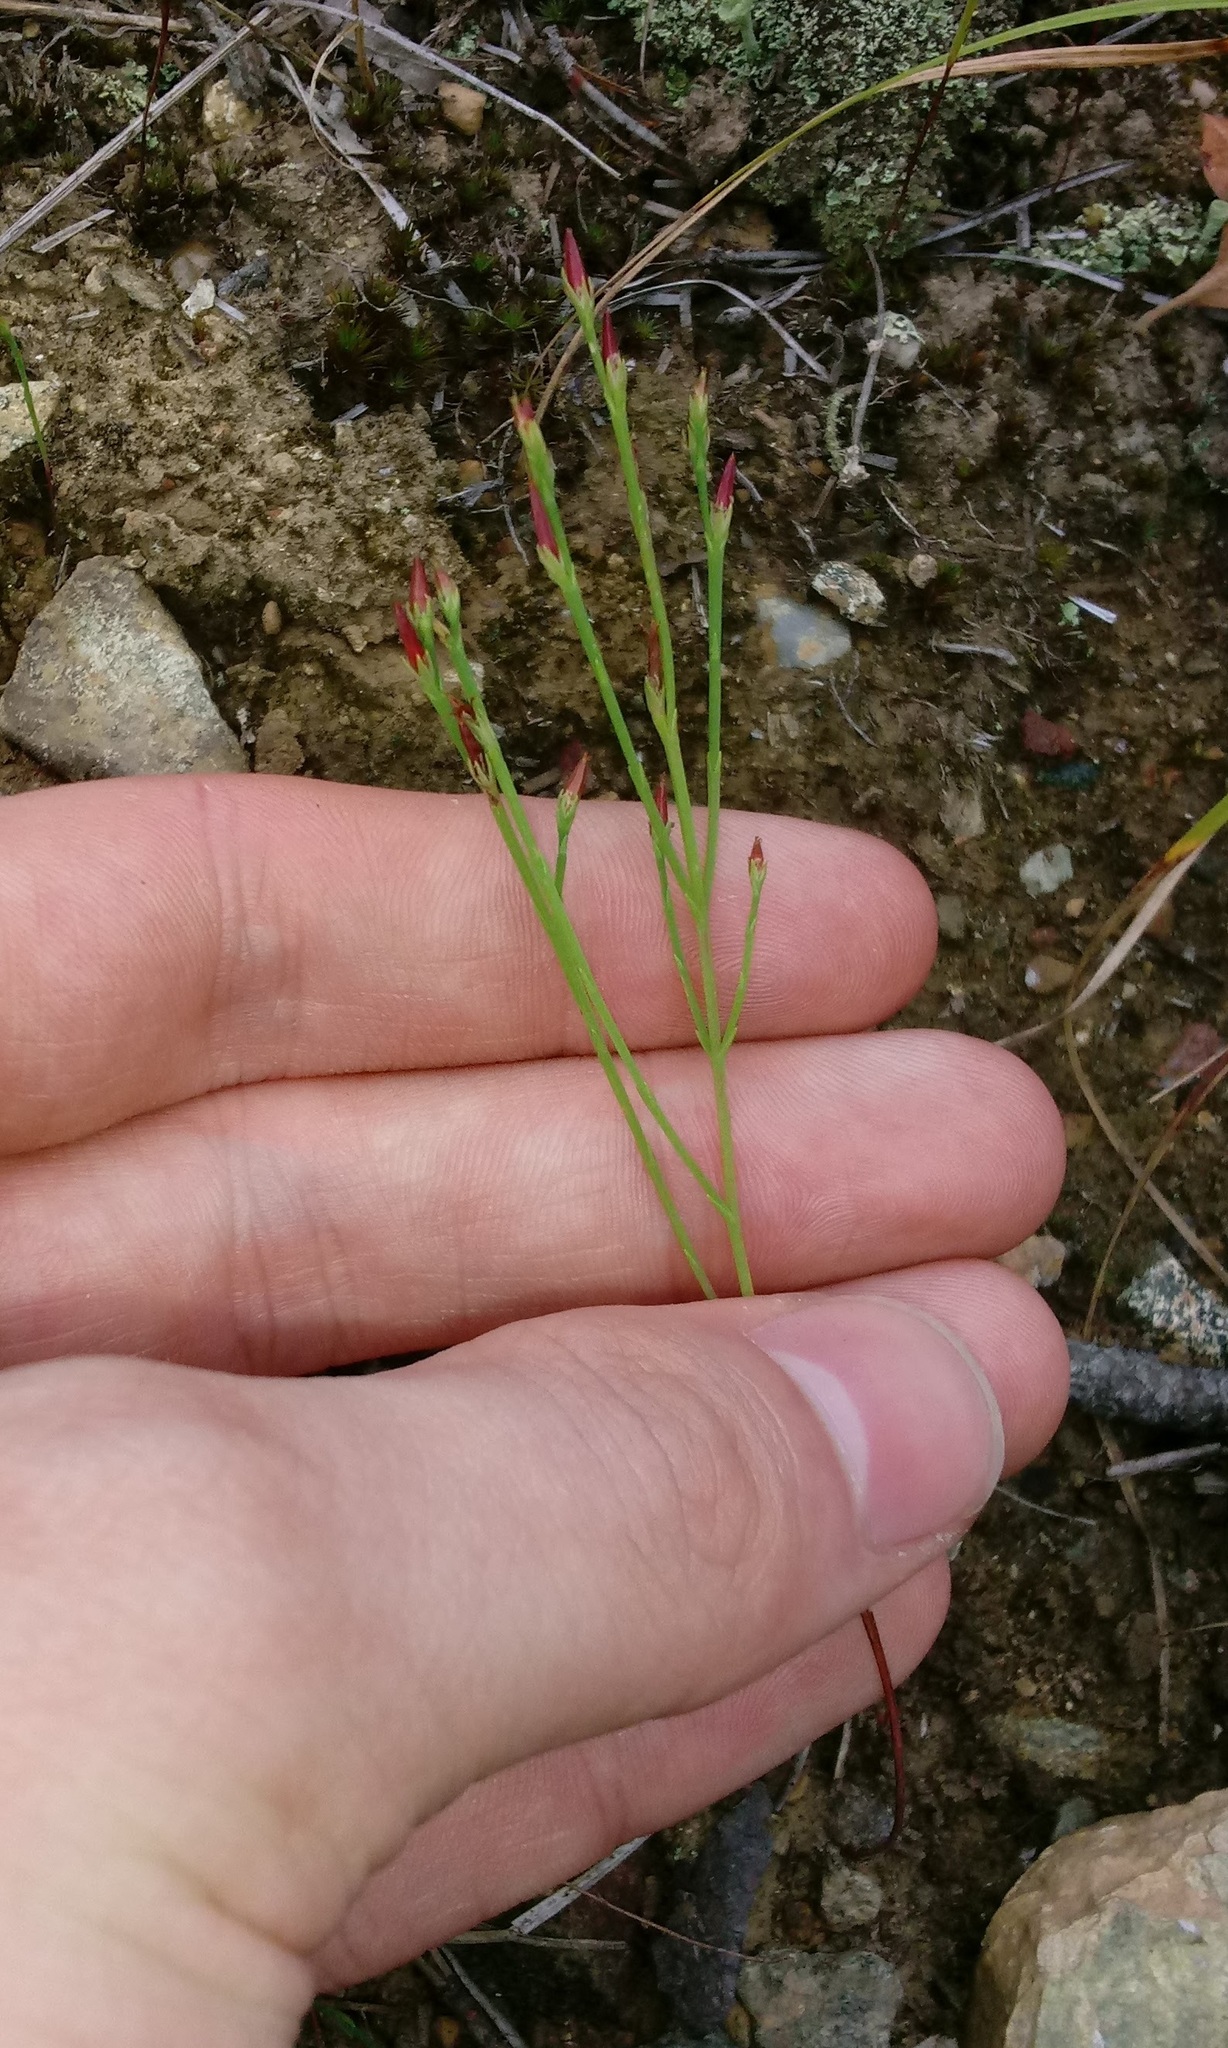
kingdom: Plantae
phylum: Tracheophyta
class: Magnoliopsida
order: Malpighiales
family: Hypericaceae
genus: Hypericum
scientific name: Hypericum gentianoides
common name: Gentian-leaved st. john's-wort
